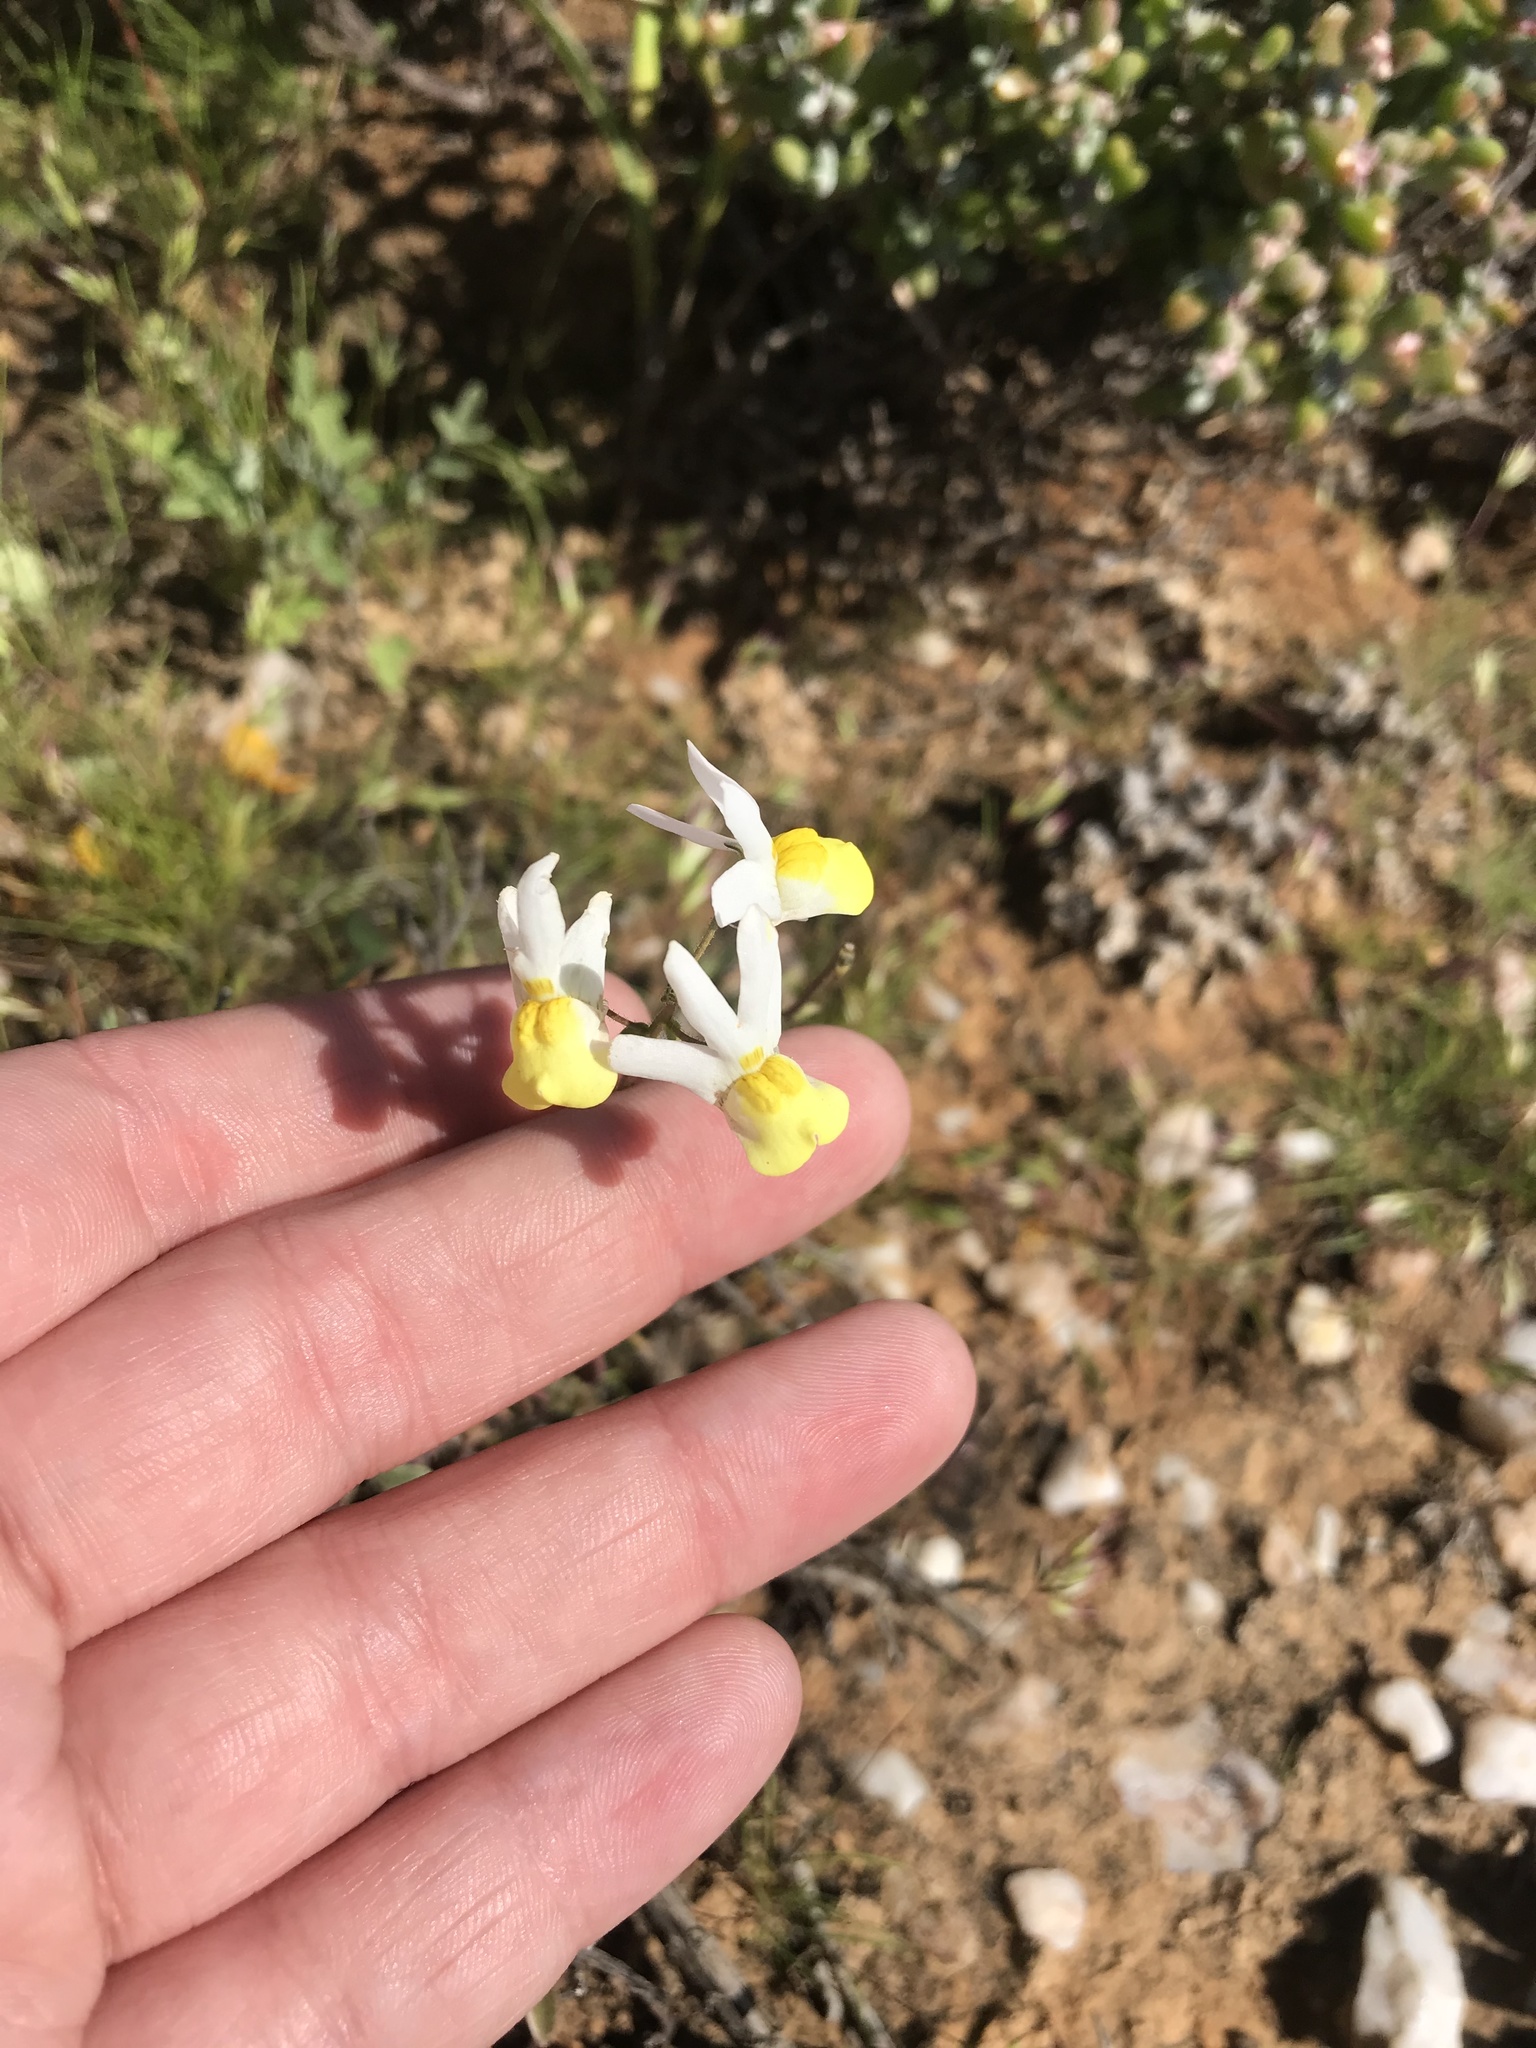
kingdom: Plantae
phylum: Tracheophyta
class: Magnoliopsida
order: Lamiales
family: Scrophulariaceae
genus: Nemesia
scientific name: Nemesia anisocarpa
